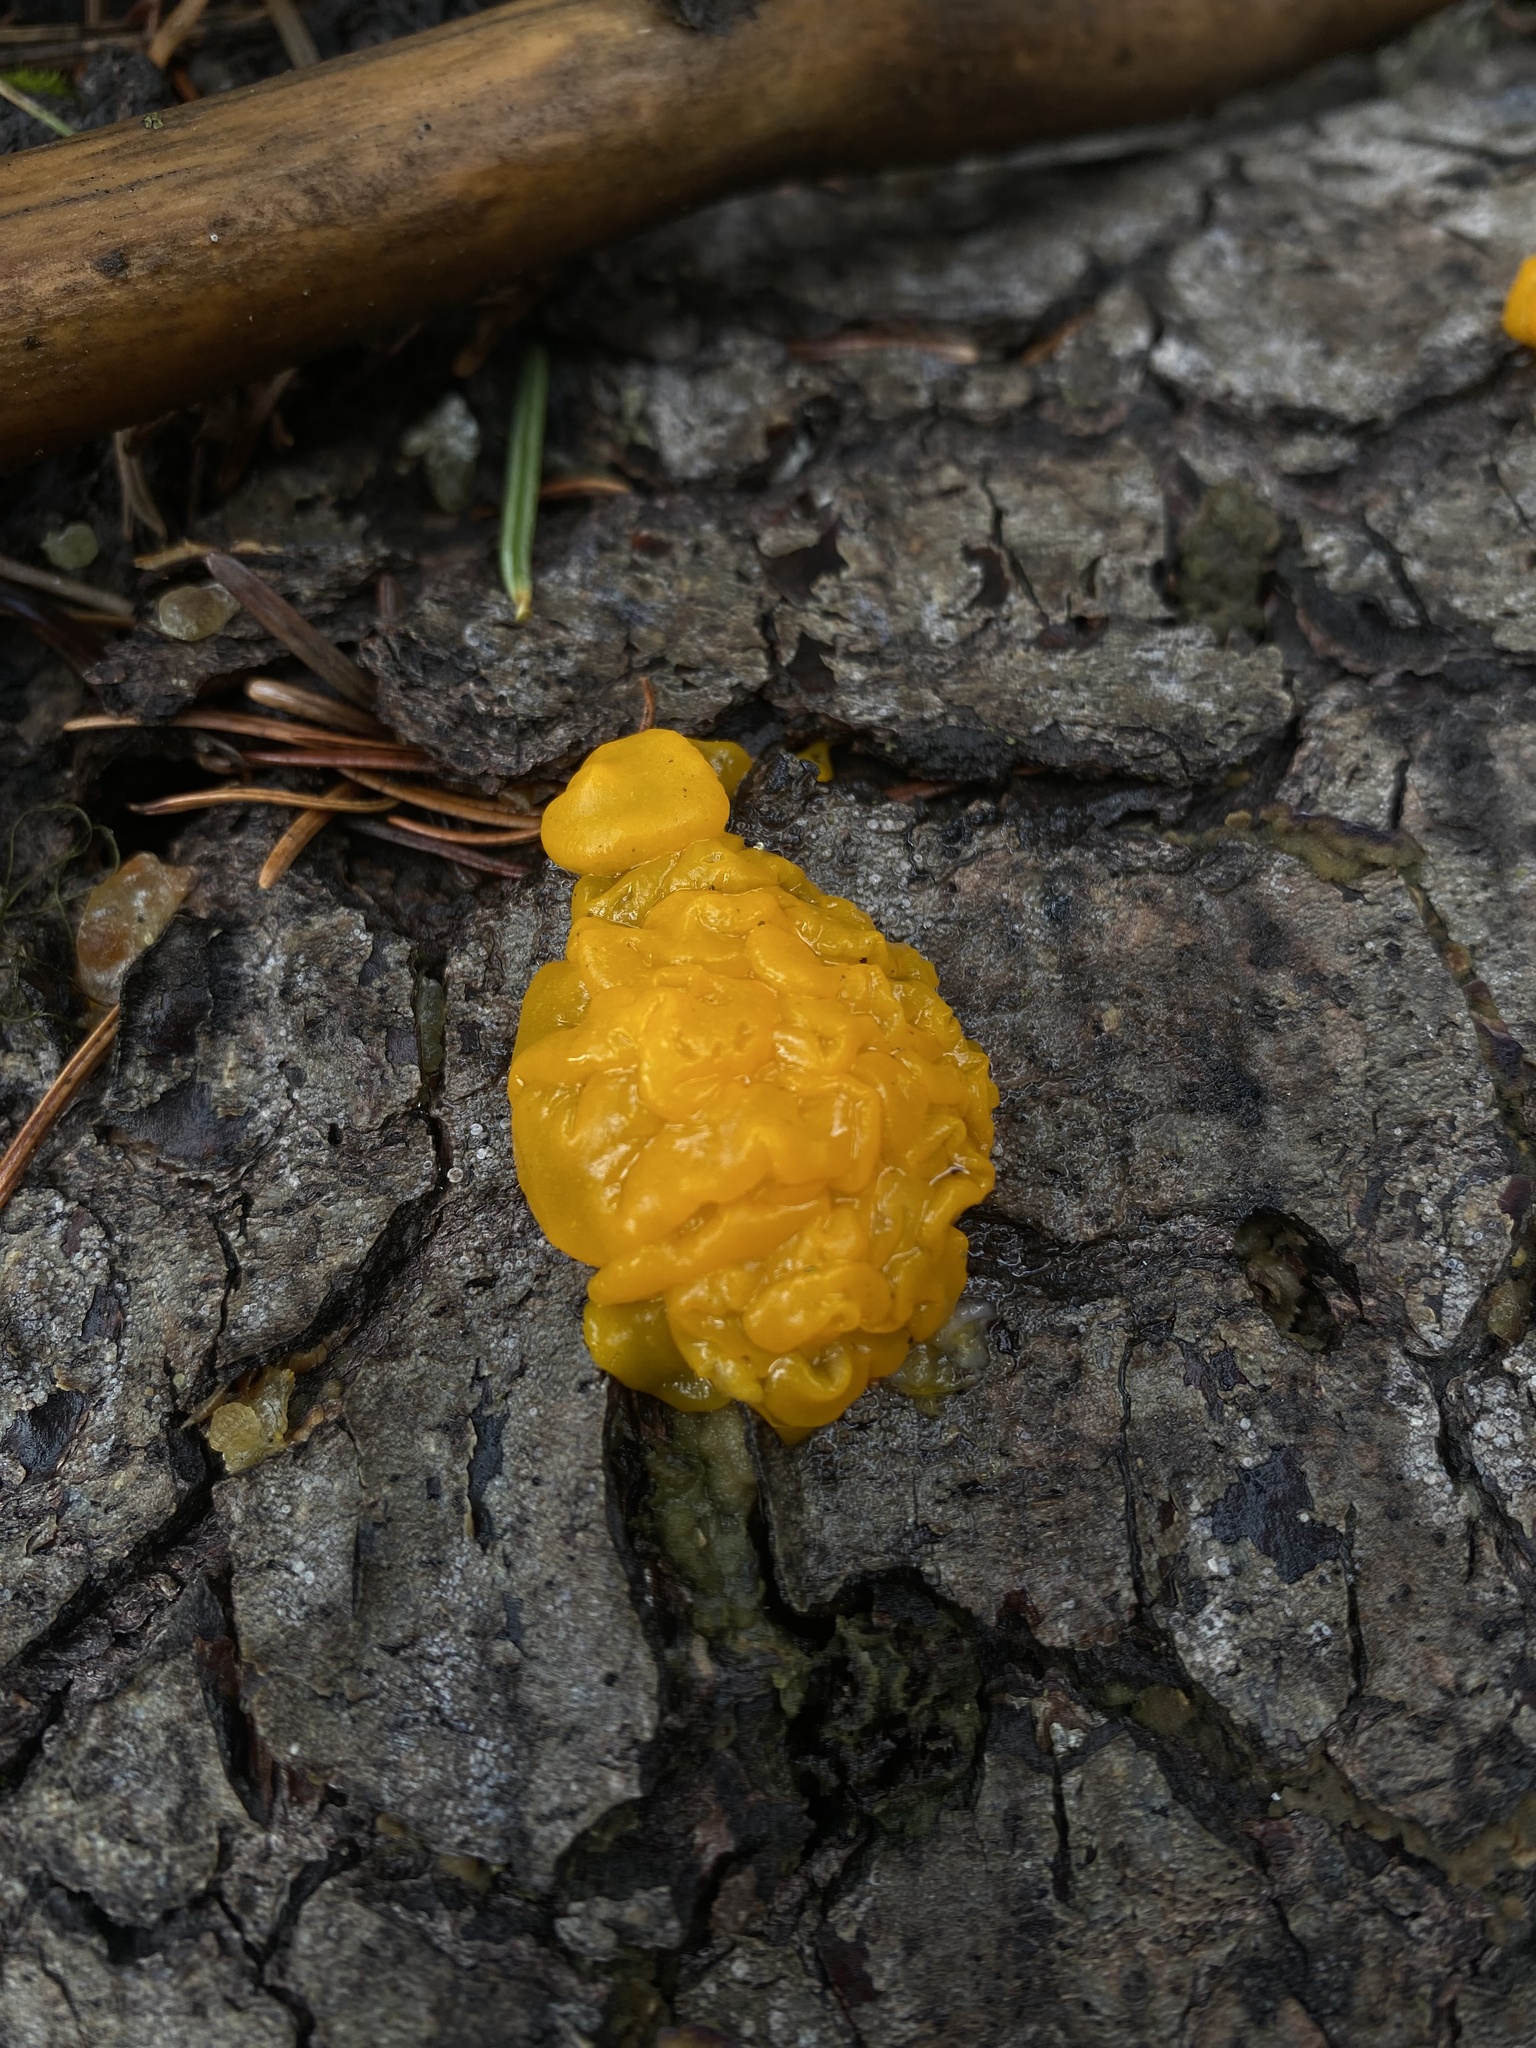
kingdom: Fungi
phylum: Basidiomycota
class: Dacrymycetes
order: Dacrymycetales
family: Dacrymycetaceae
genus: Dacrymyces
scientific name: Dacrymyces chrysospermus
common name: Orange jelly spot
